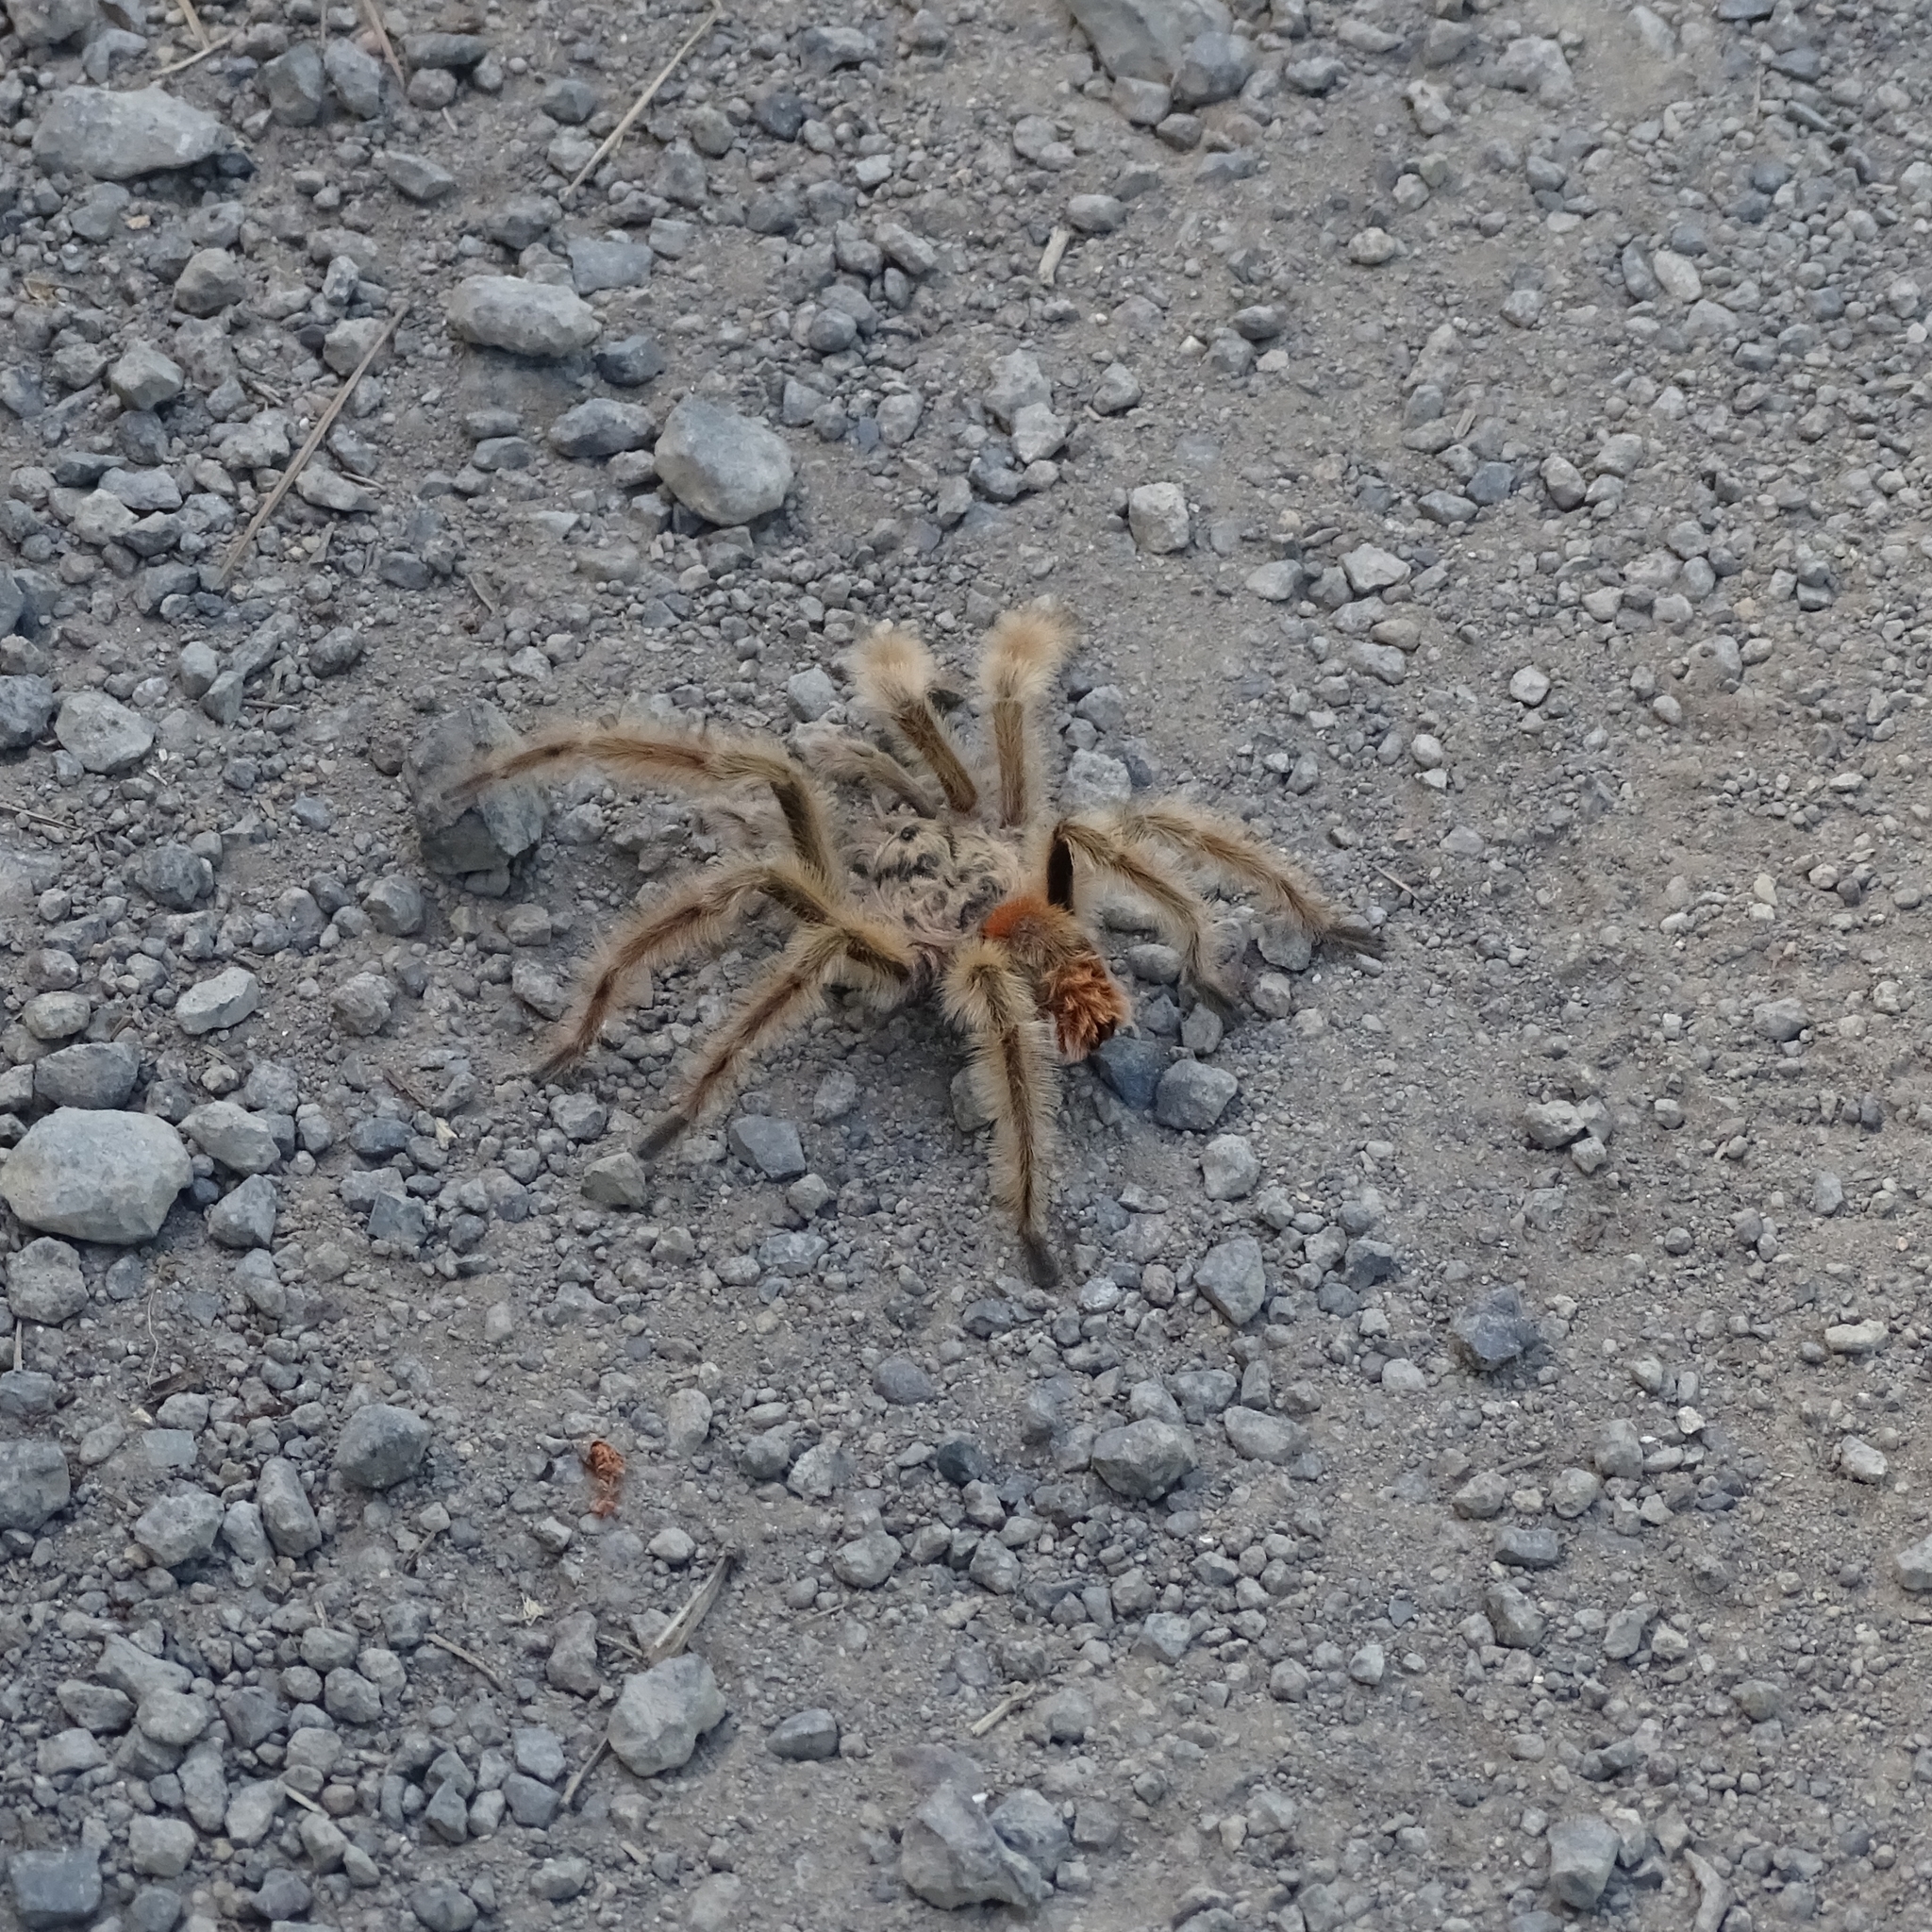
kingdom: Animalia
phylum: Arthropoda
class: Arachnida
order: Araneae
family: Theraphosidae
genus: Phrixotrichus
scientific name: Phrixotrichus vulpinus
